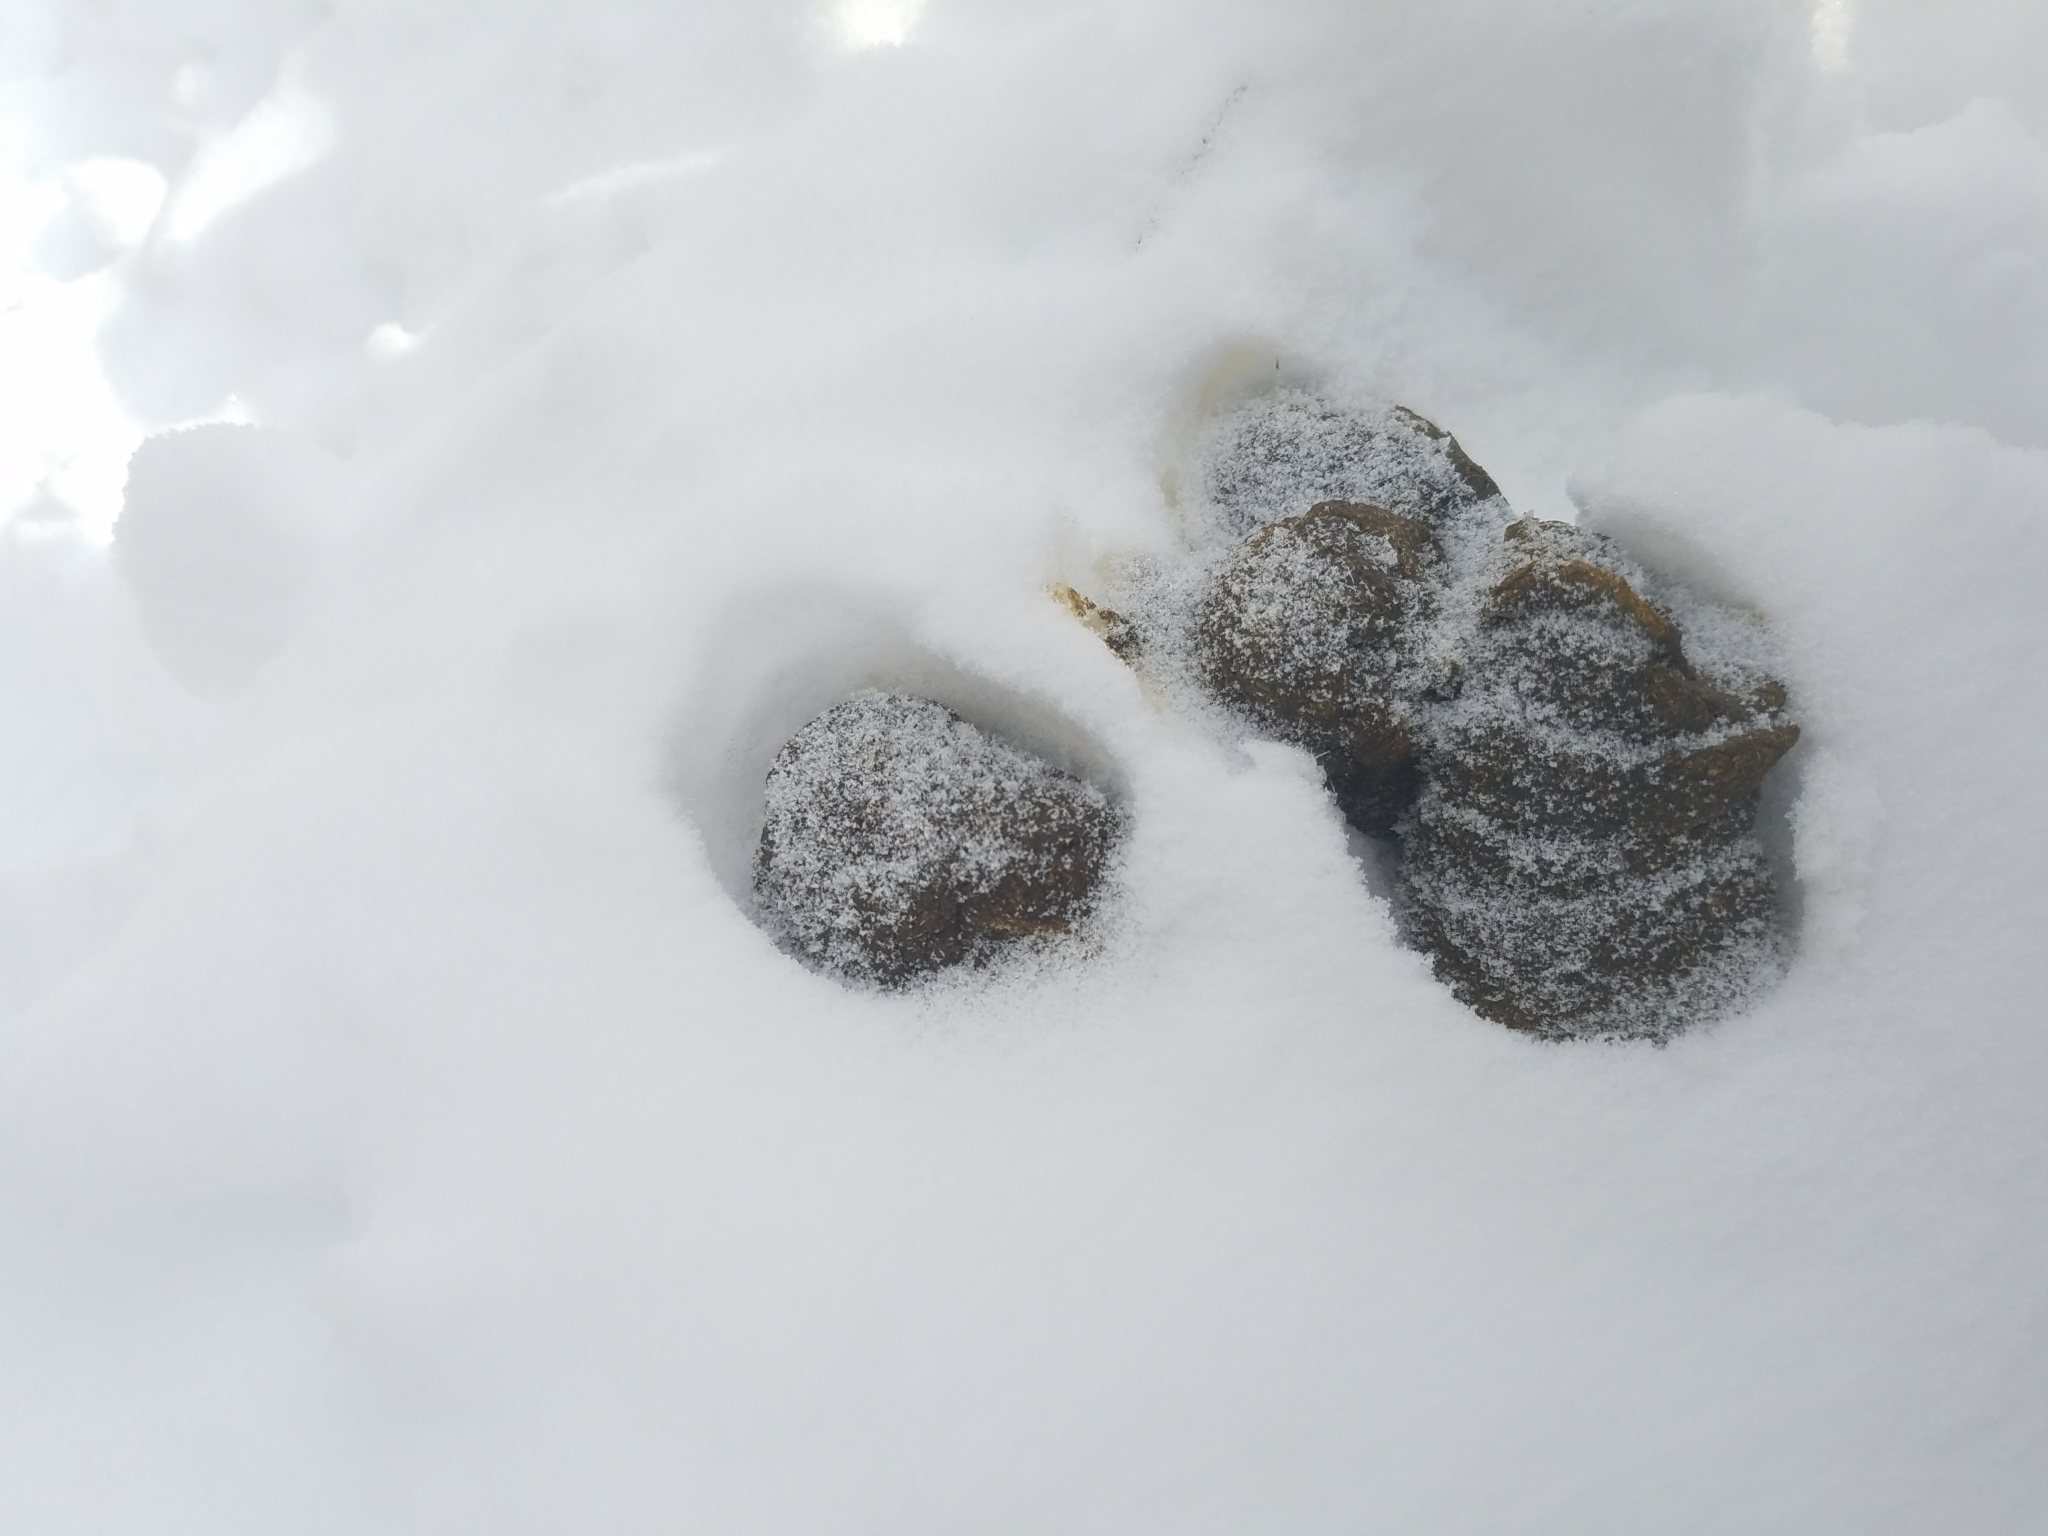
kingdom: Animalia
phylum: Chordata
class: Mammalia
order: Carnivora
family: Ursidae
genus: Ursus
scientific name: Ursus americanus
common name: American black bear
